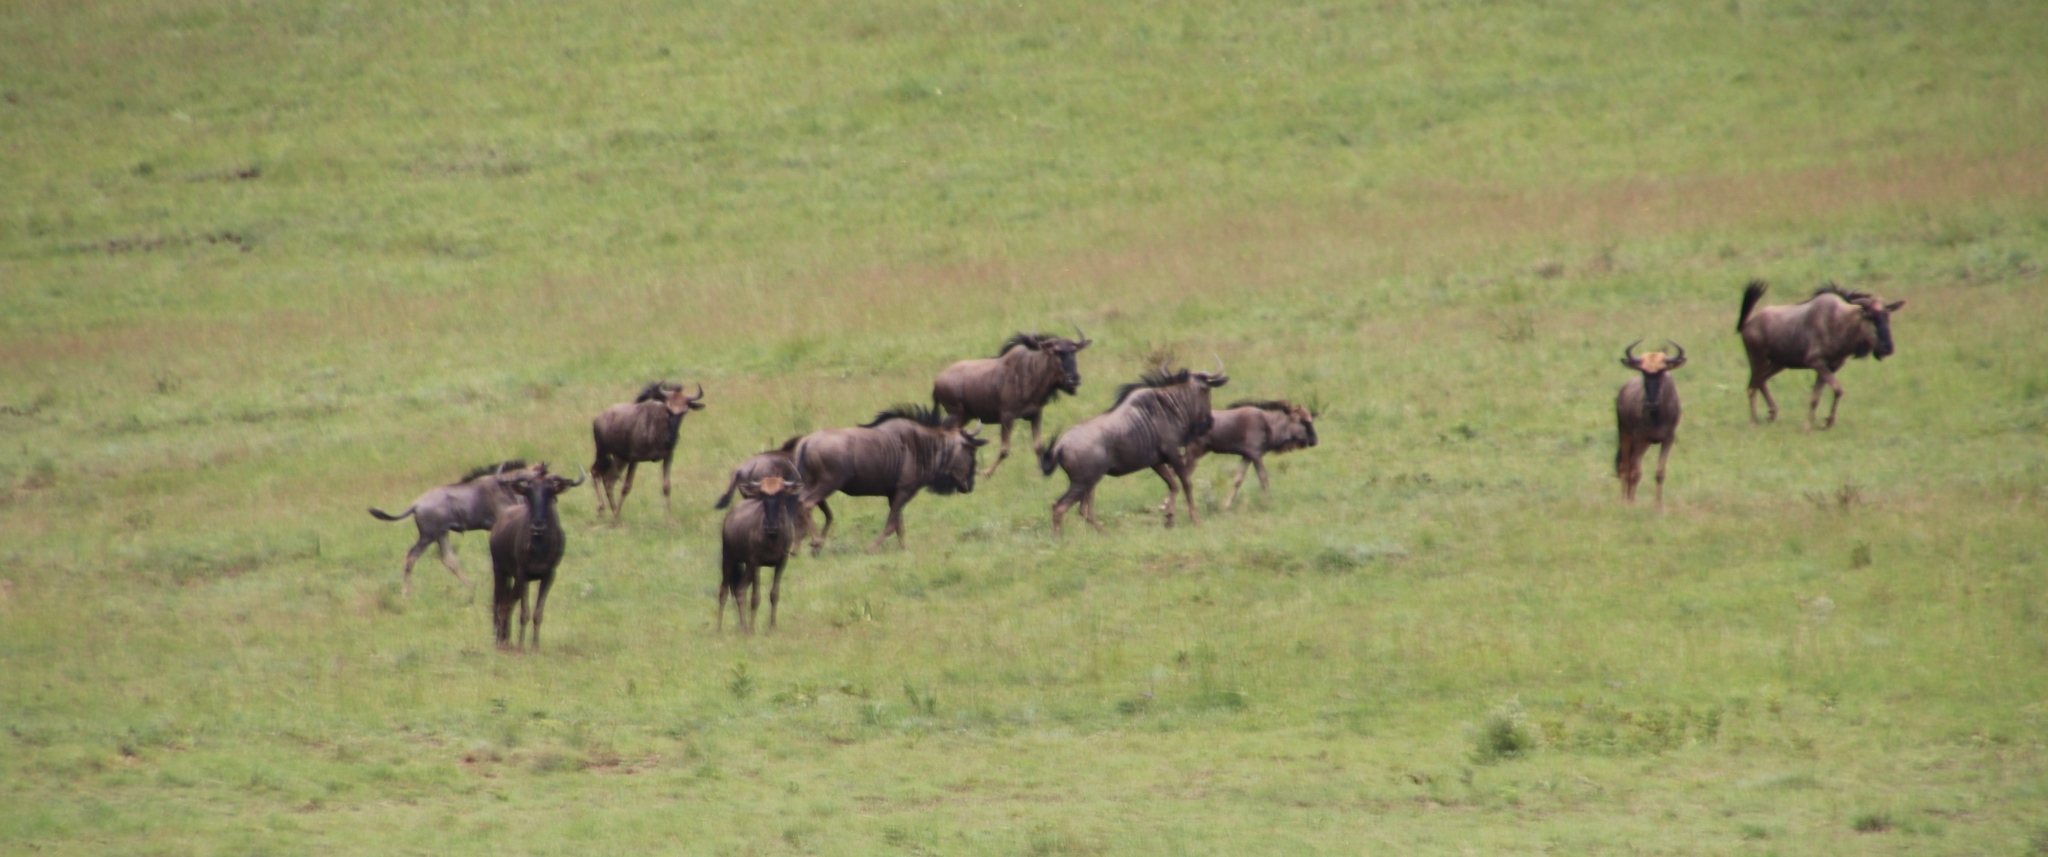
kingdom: Animalia
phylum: Chordata
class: Mammalia
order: Artiodactyla
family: Bovidae
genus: Connochaetes
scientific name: Connochaetes taurinus
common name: Blue wildebeest
